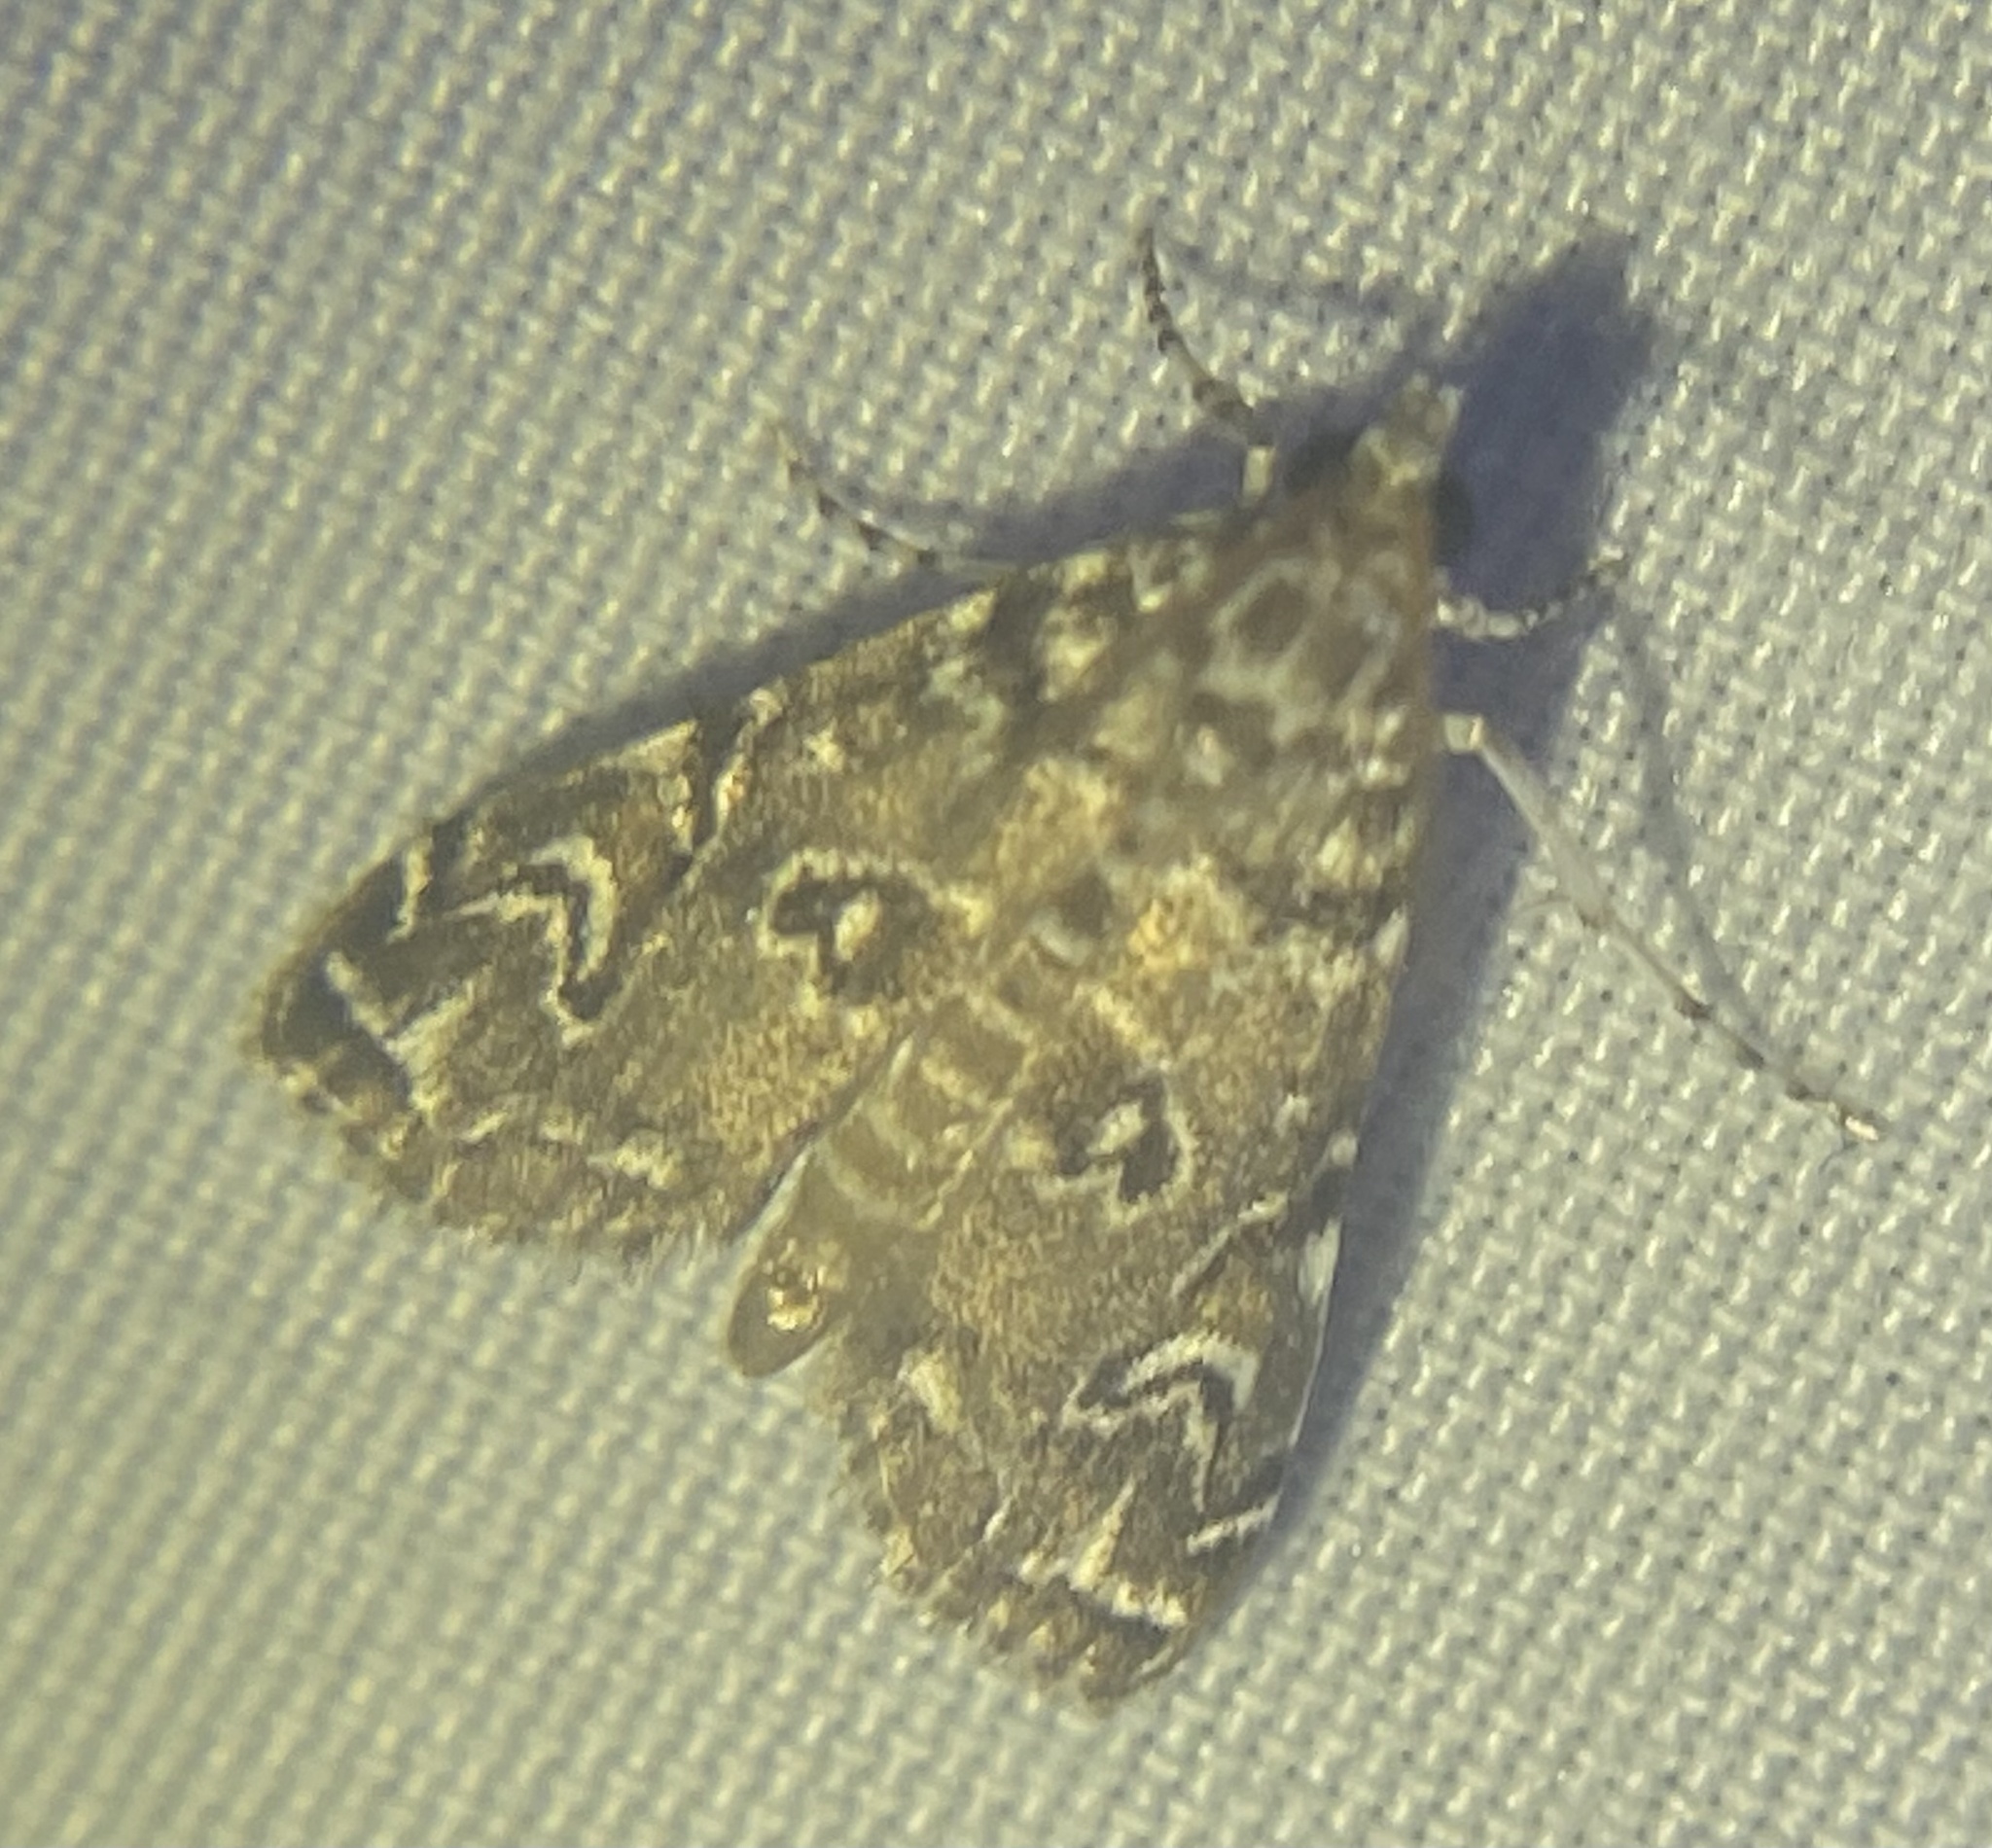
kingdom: Animalia
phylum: Arthropoda
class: Insecta
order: Lepidoptera
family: Crambidae
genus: Elophila
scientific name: Elophila gyralis
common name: Waterlily borer moth
